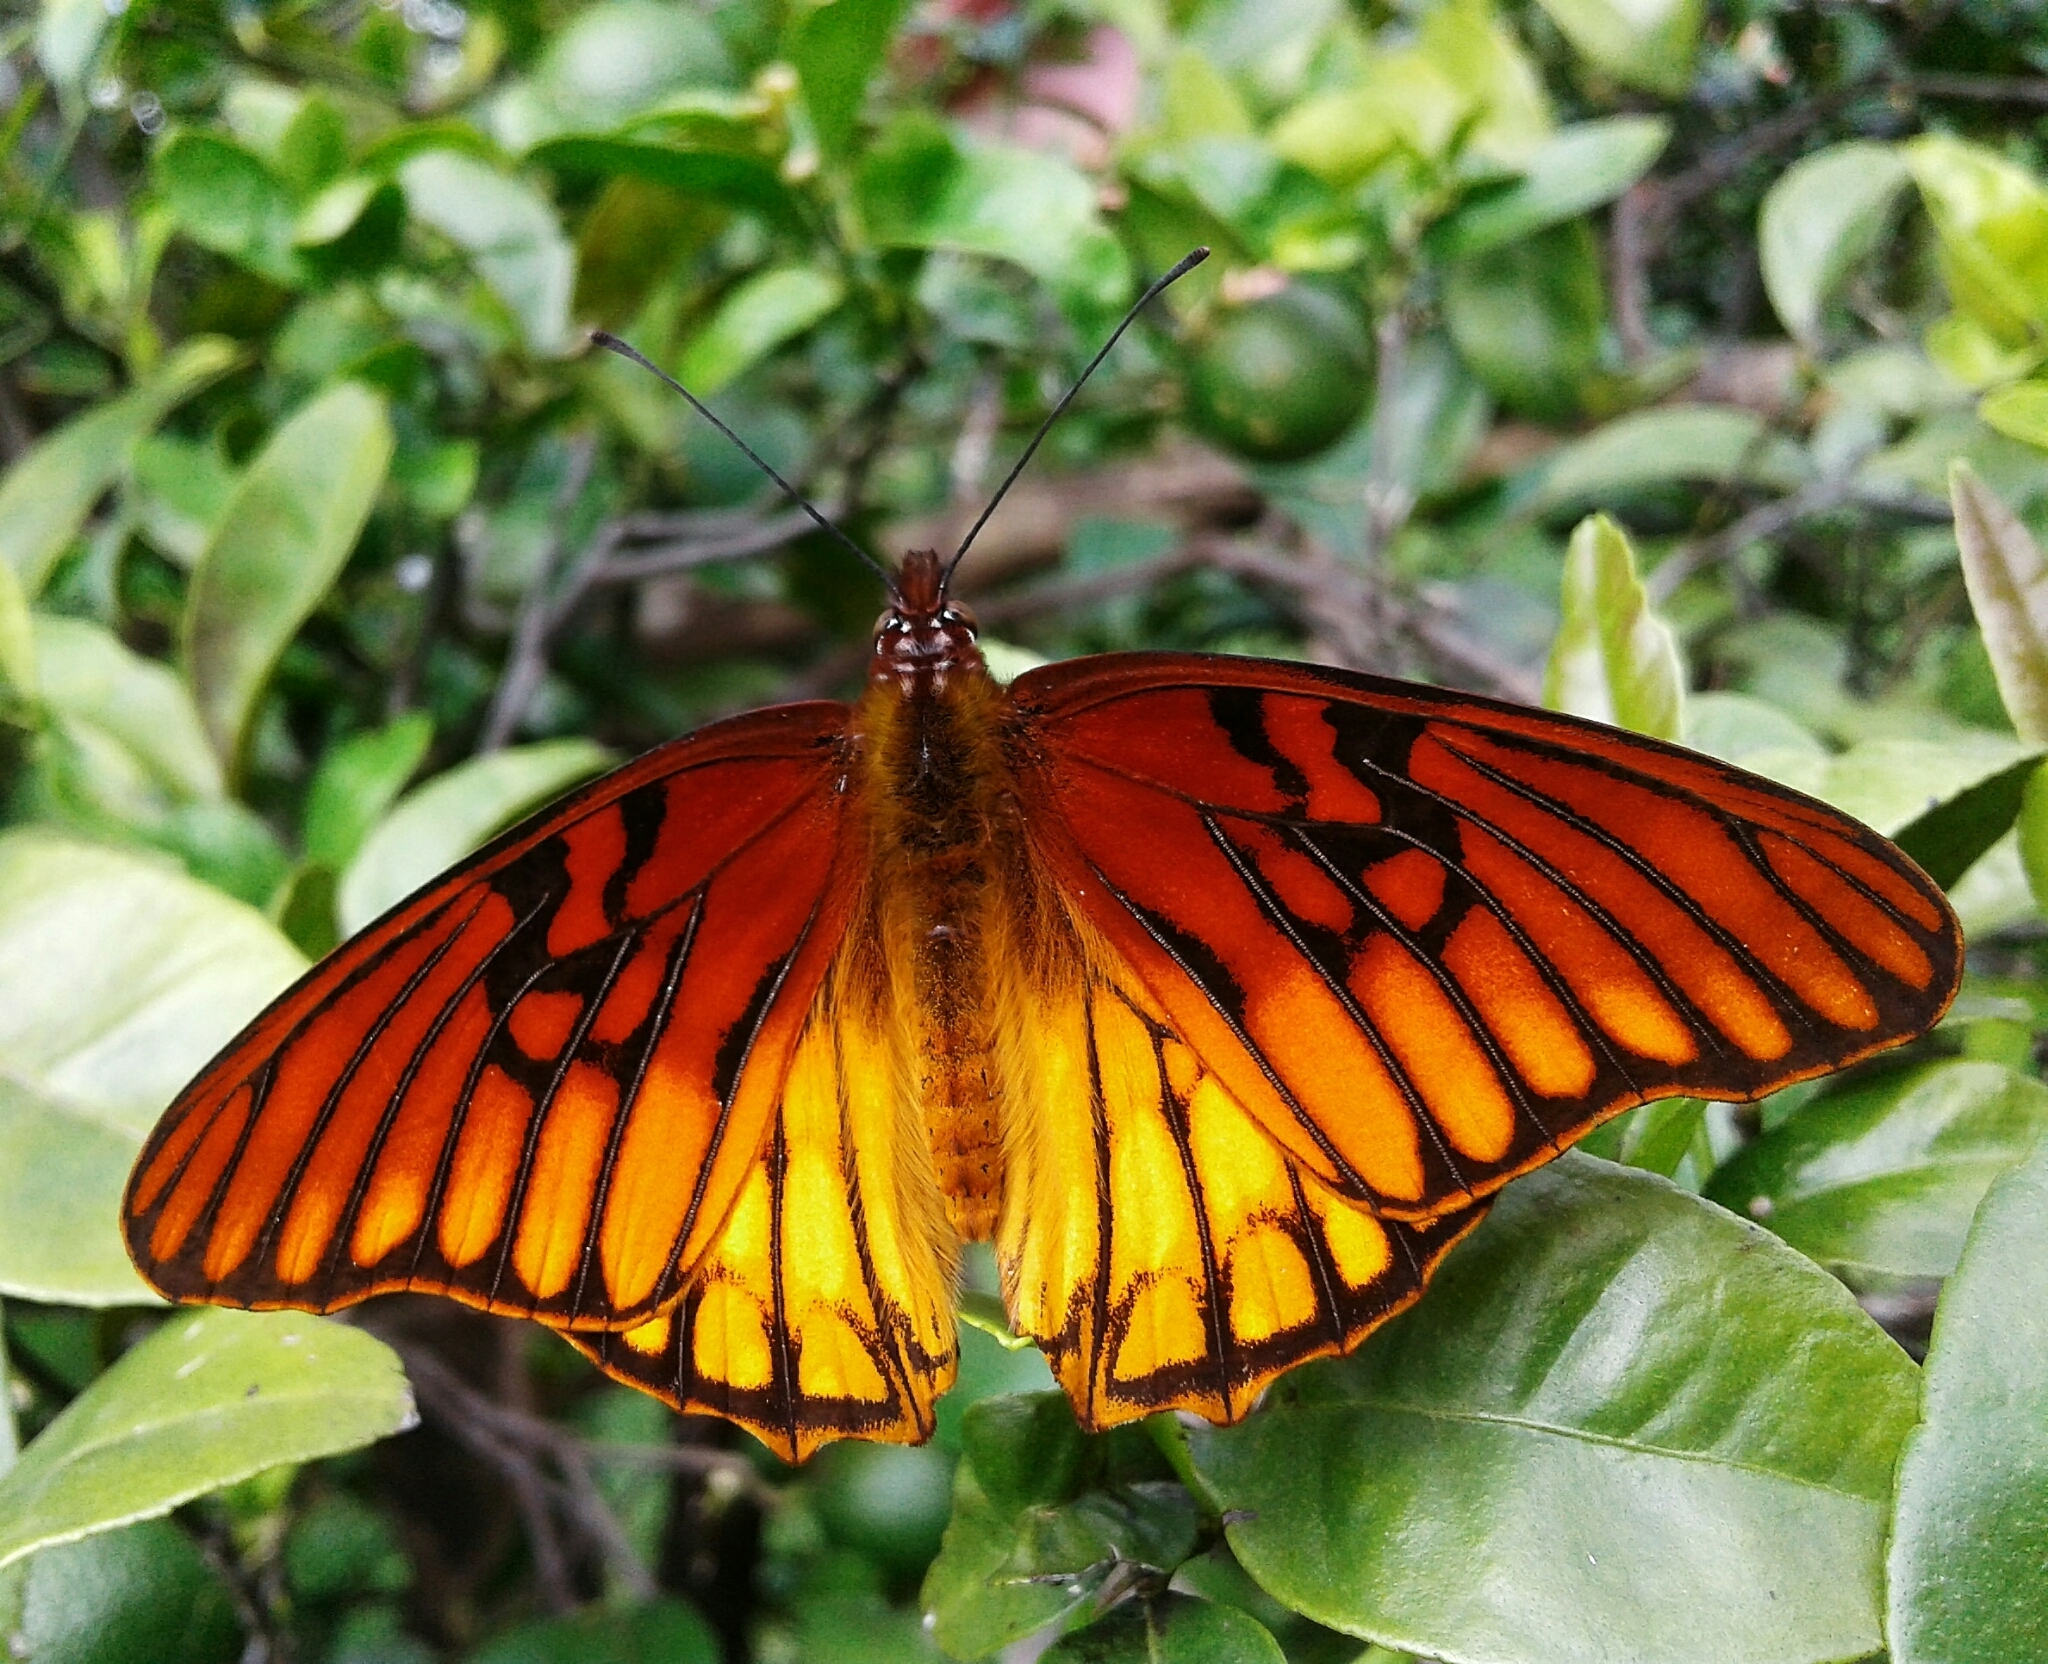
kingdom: Animalia
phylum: Arthropoda
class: Insecta
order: Lepidoptera
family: Nymphalidae
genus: Dione
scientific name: Dione moneta
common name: Mexican silverspot
